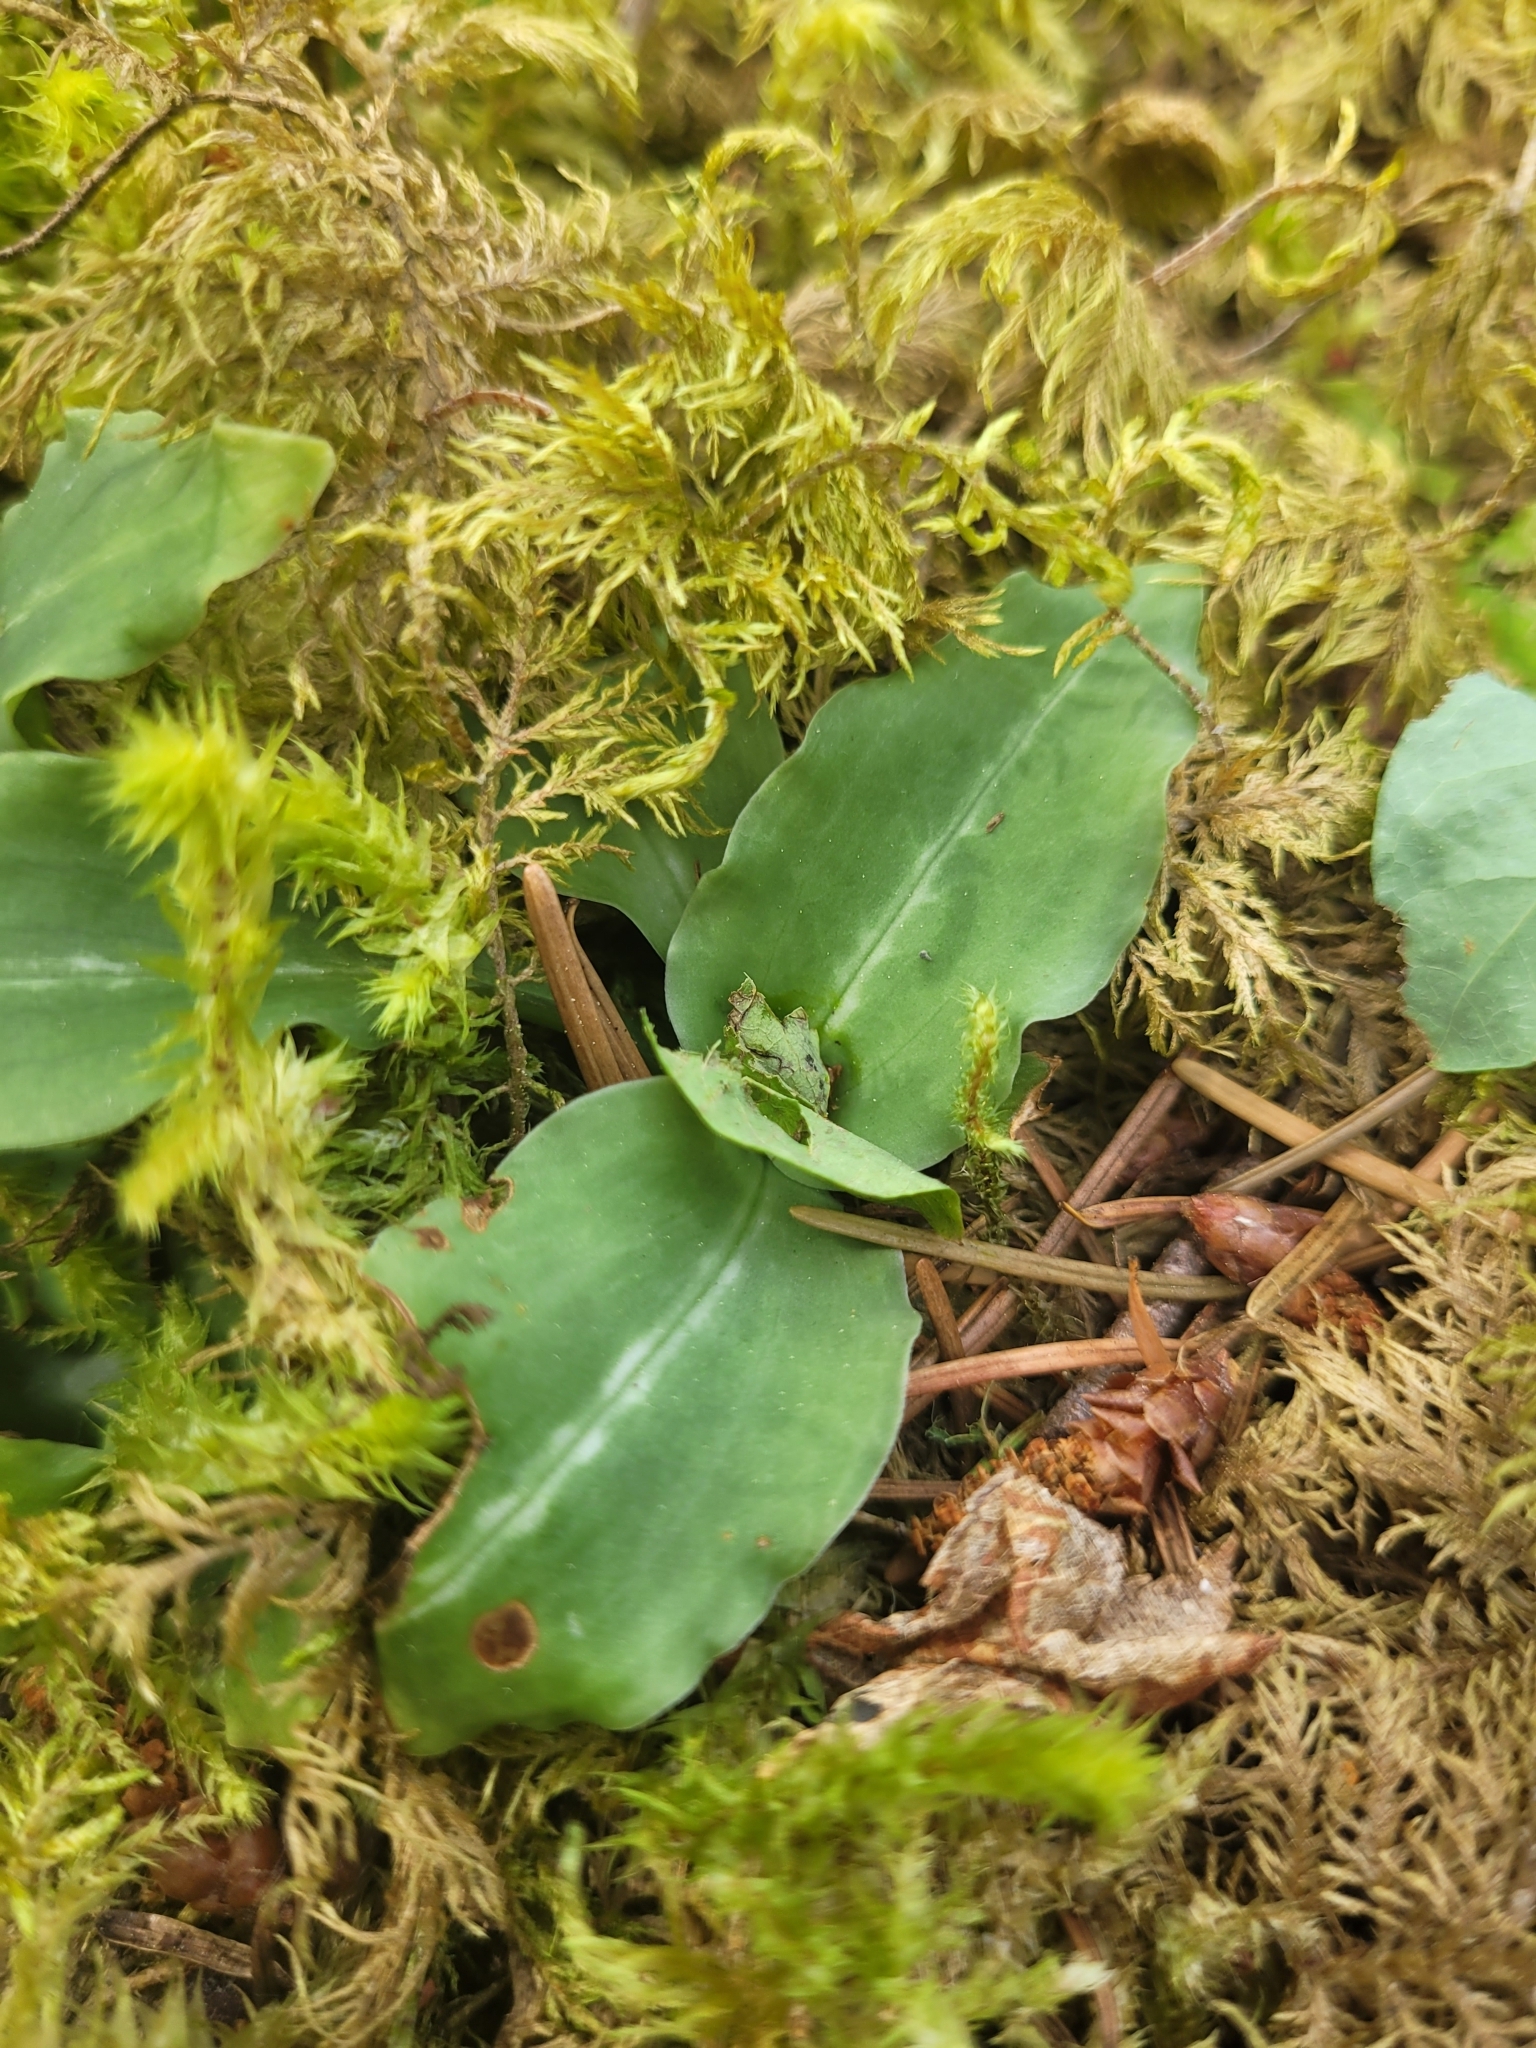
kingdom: Plantae
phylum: Tracheophyta
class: Liliopsida
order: Asparagales
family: Orchidaceae
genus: Goodyera
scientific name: Goodyera oblongifolia
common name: Giant rattlesnake-plantain
